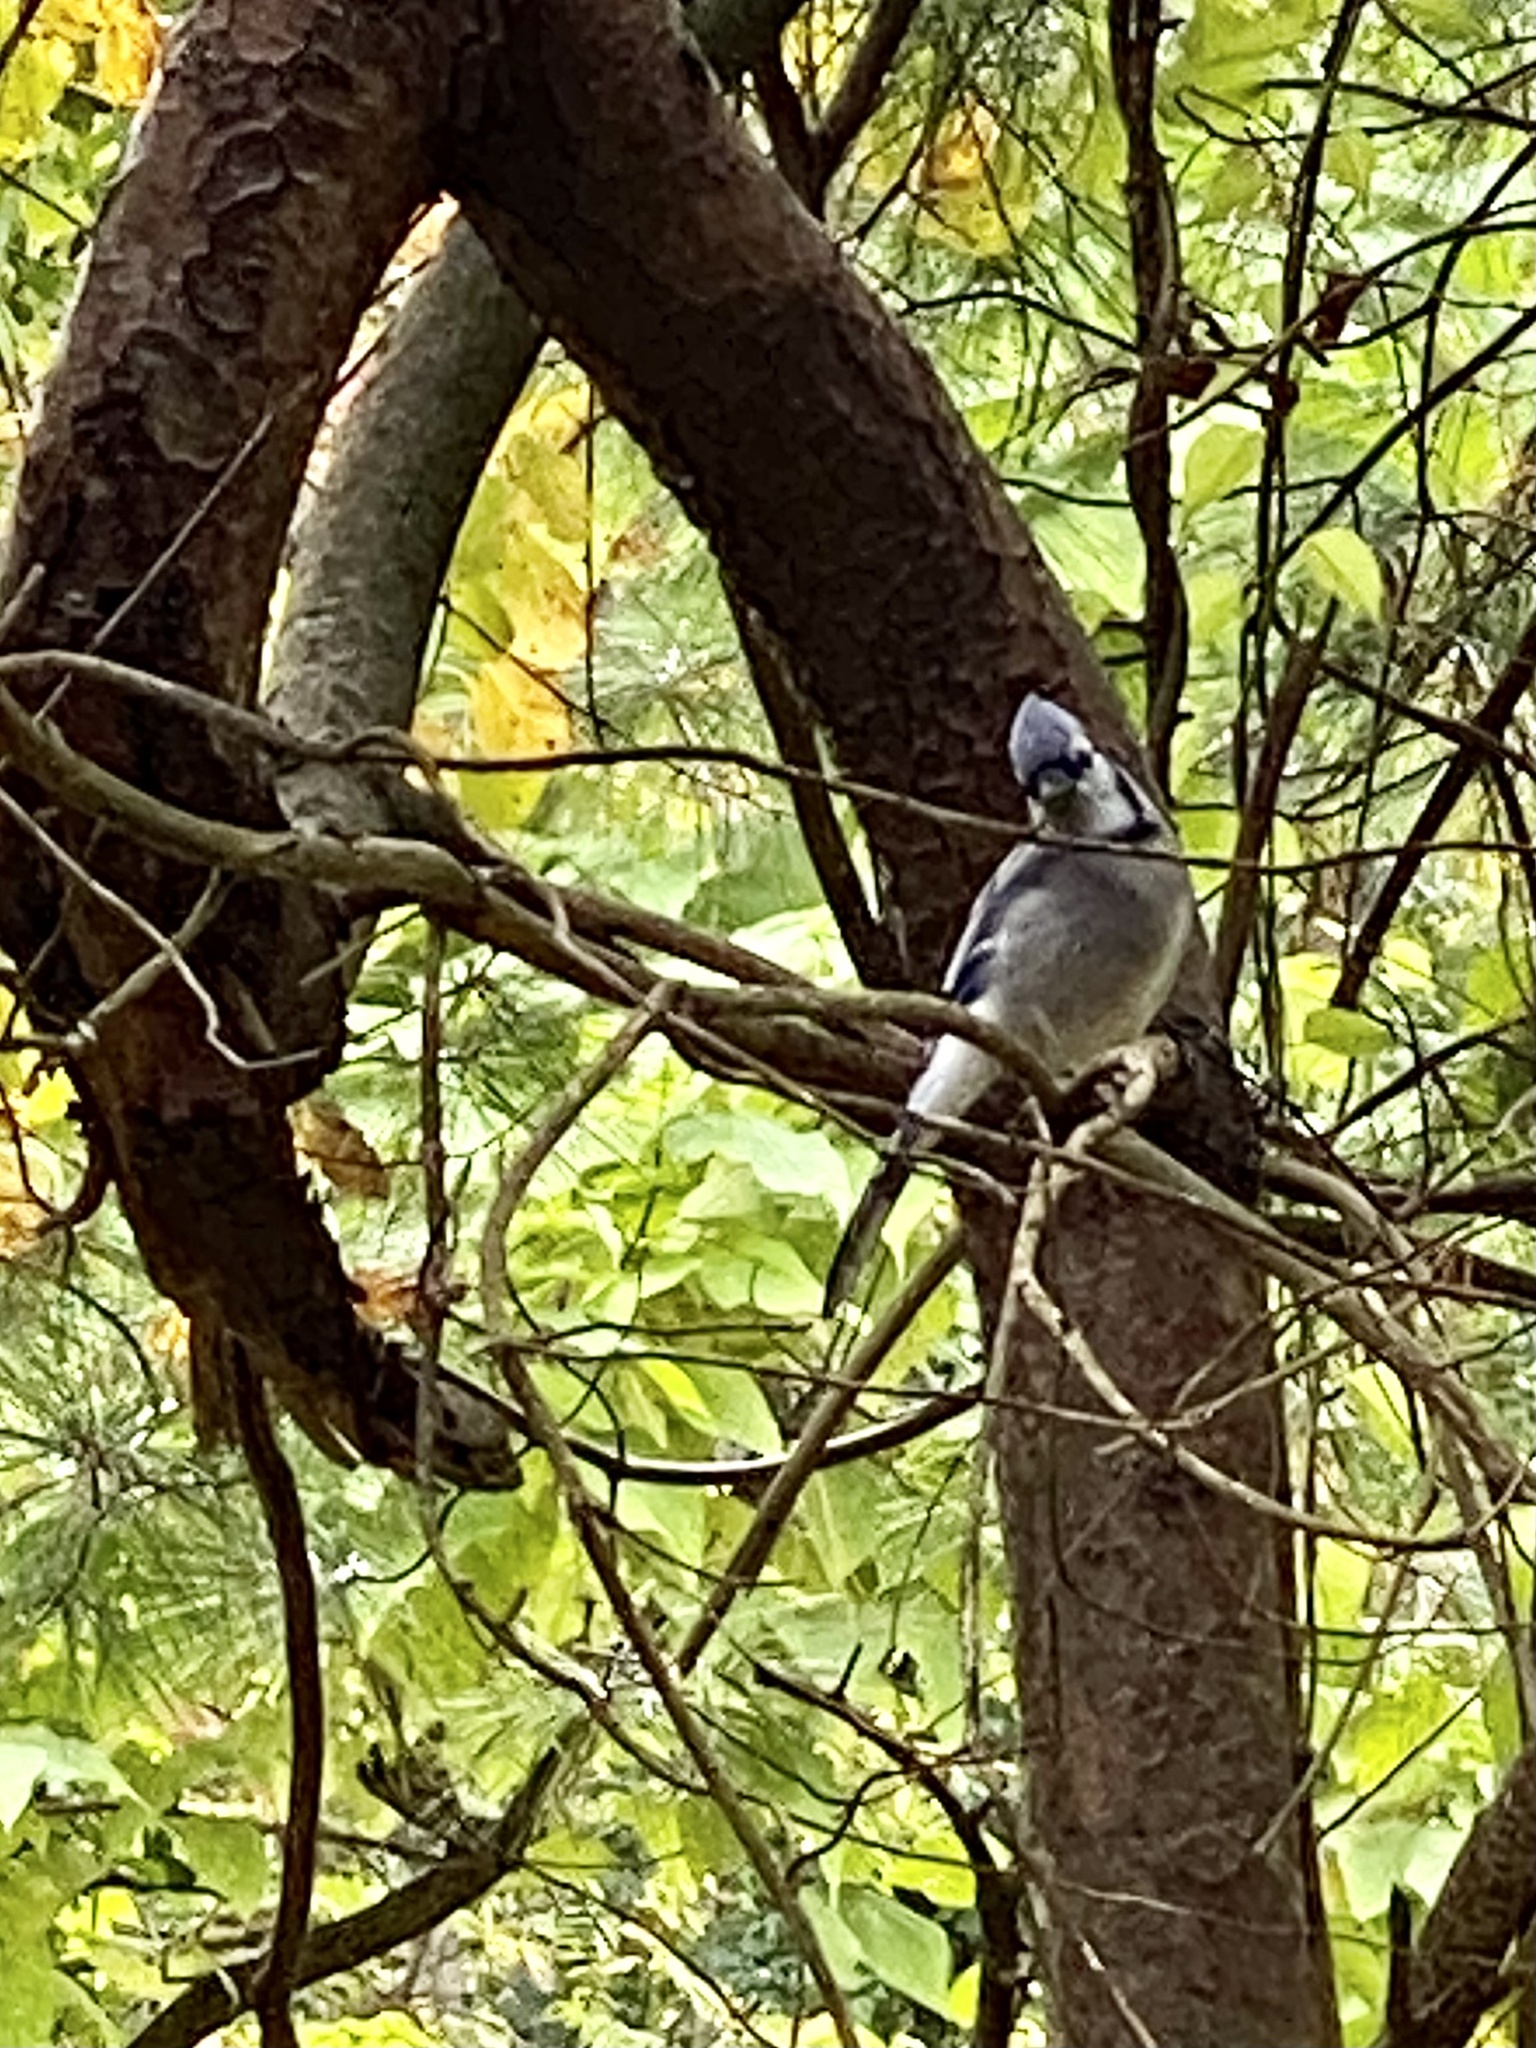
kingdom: Animalia
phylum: Chordata
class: Aves
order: Passeriformes
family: Corvidae
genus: Cyanocitta
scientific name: Cyanocitta cristata
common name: Blue jay
